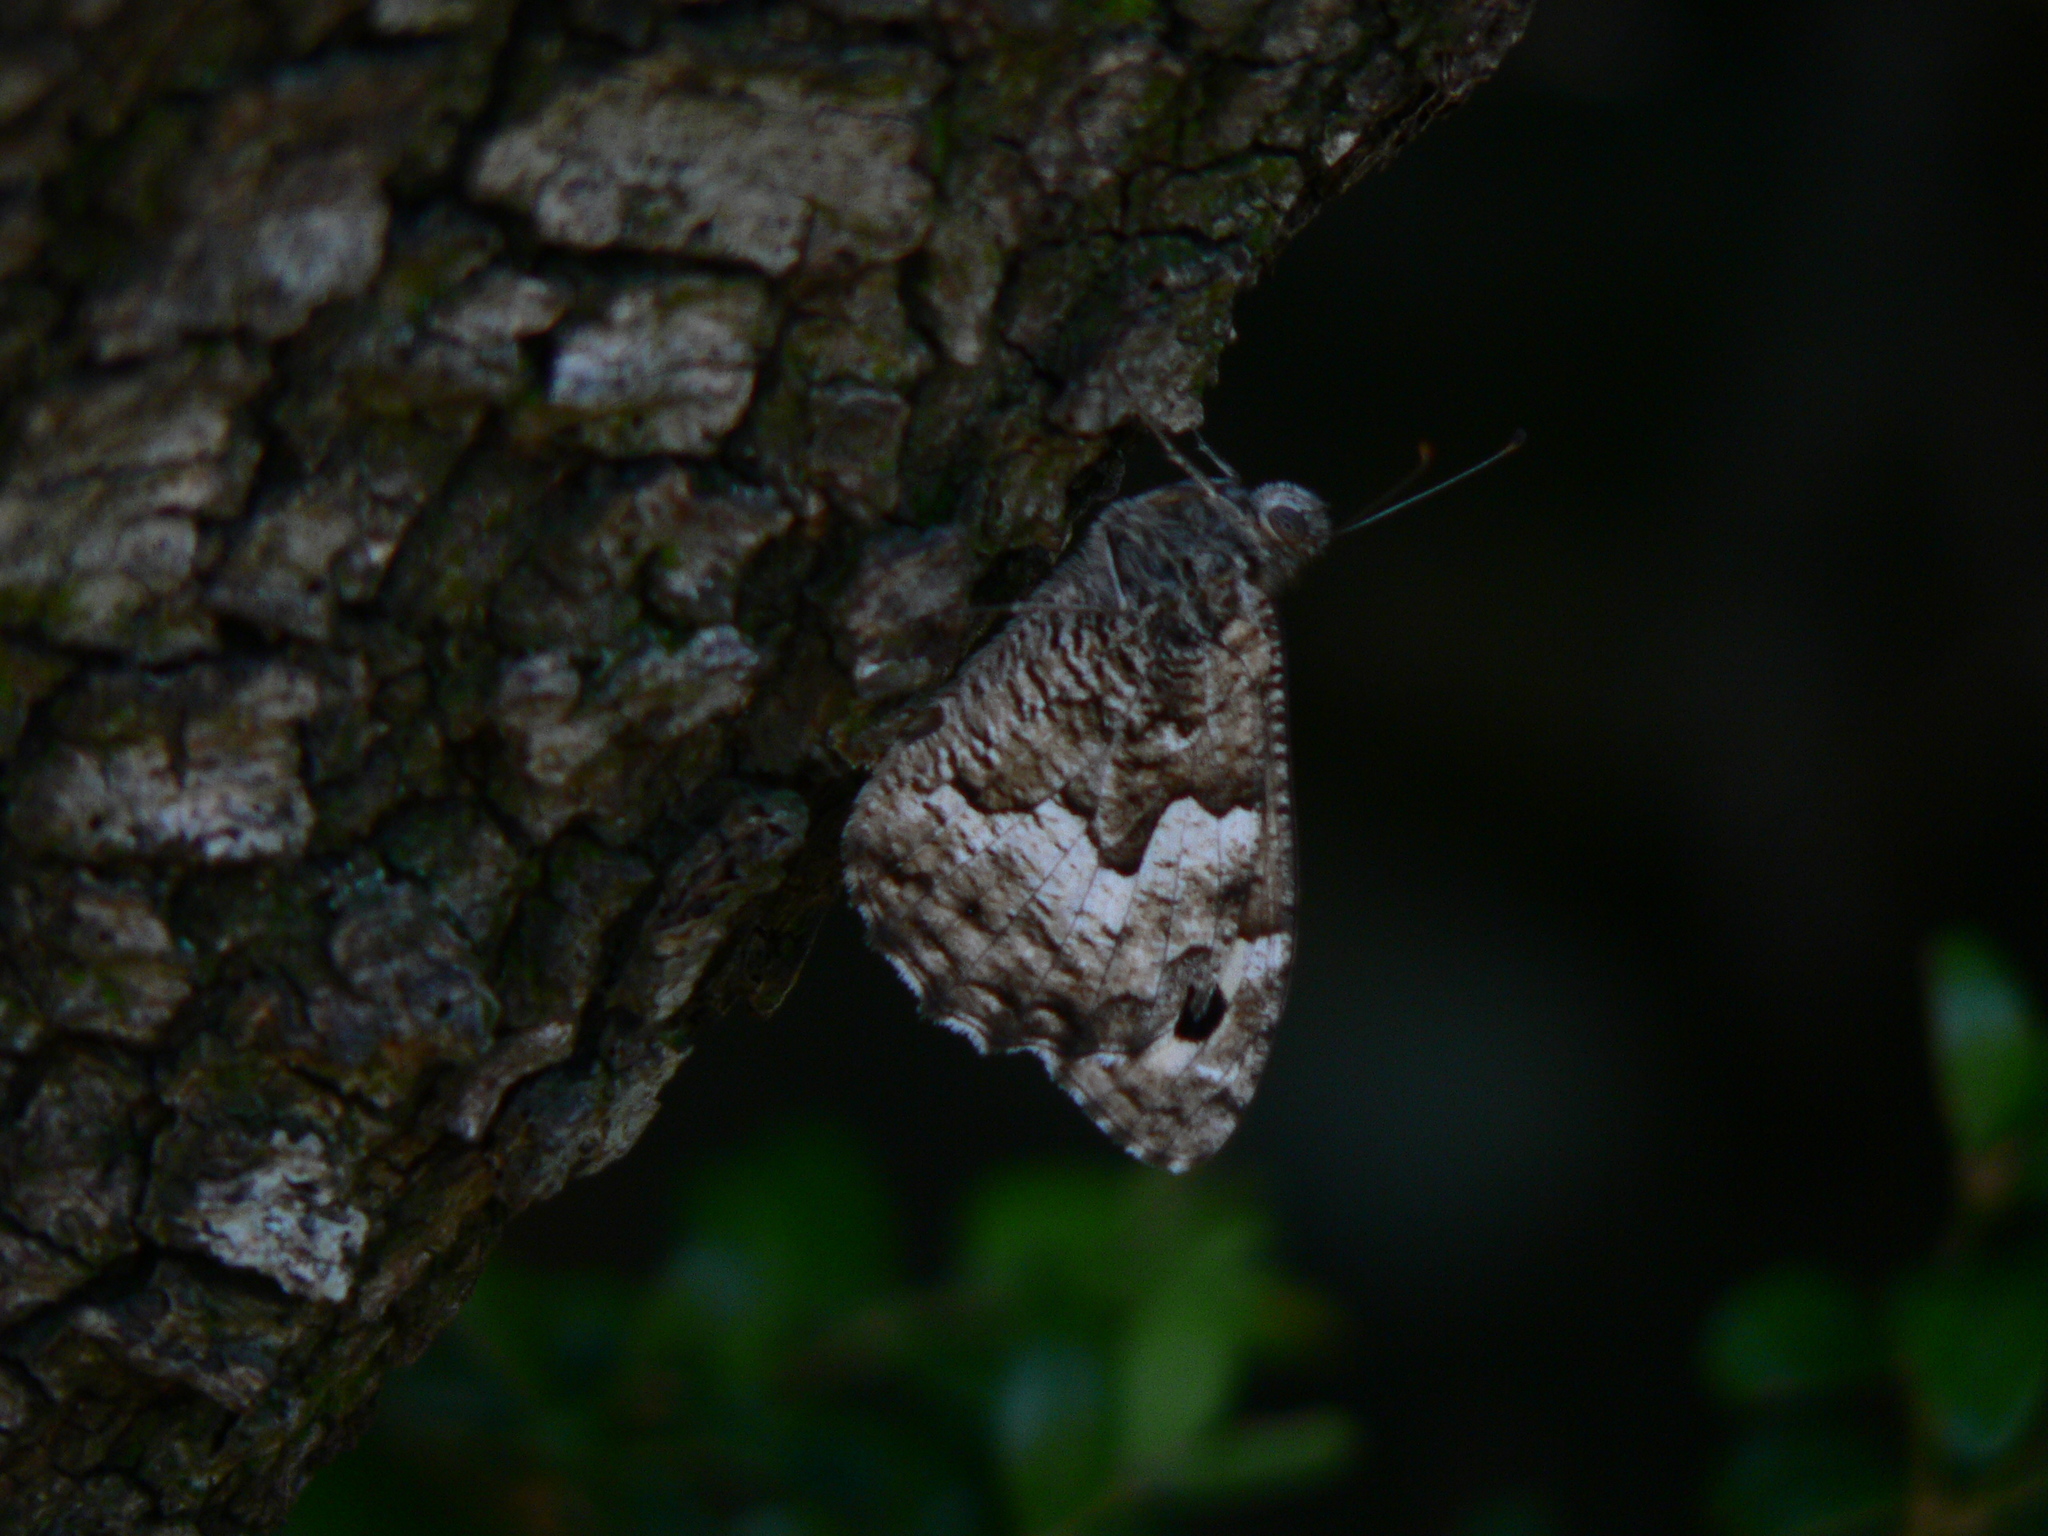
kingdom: Animalia
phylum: Arthropoda
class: Insecta
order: Lepidoptera
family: Nymphalidae
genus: Hipparchia
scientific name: Hipparchia semele
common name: Grayling
